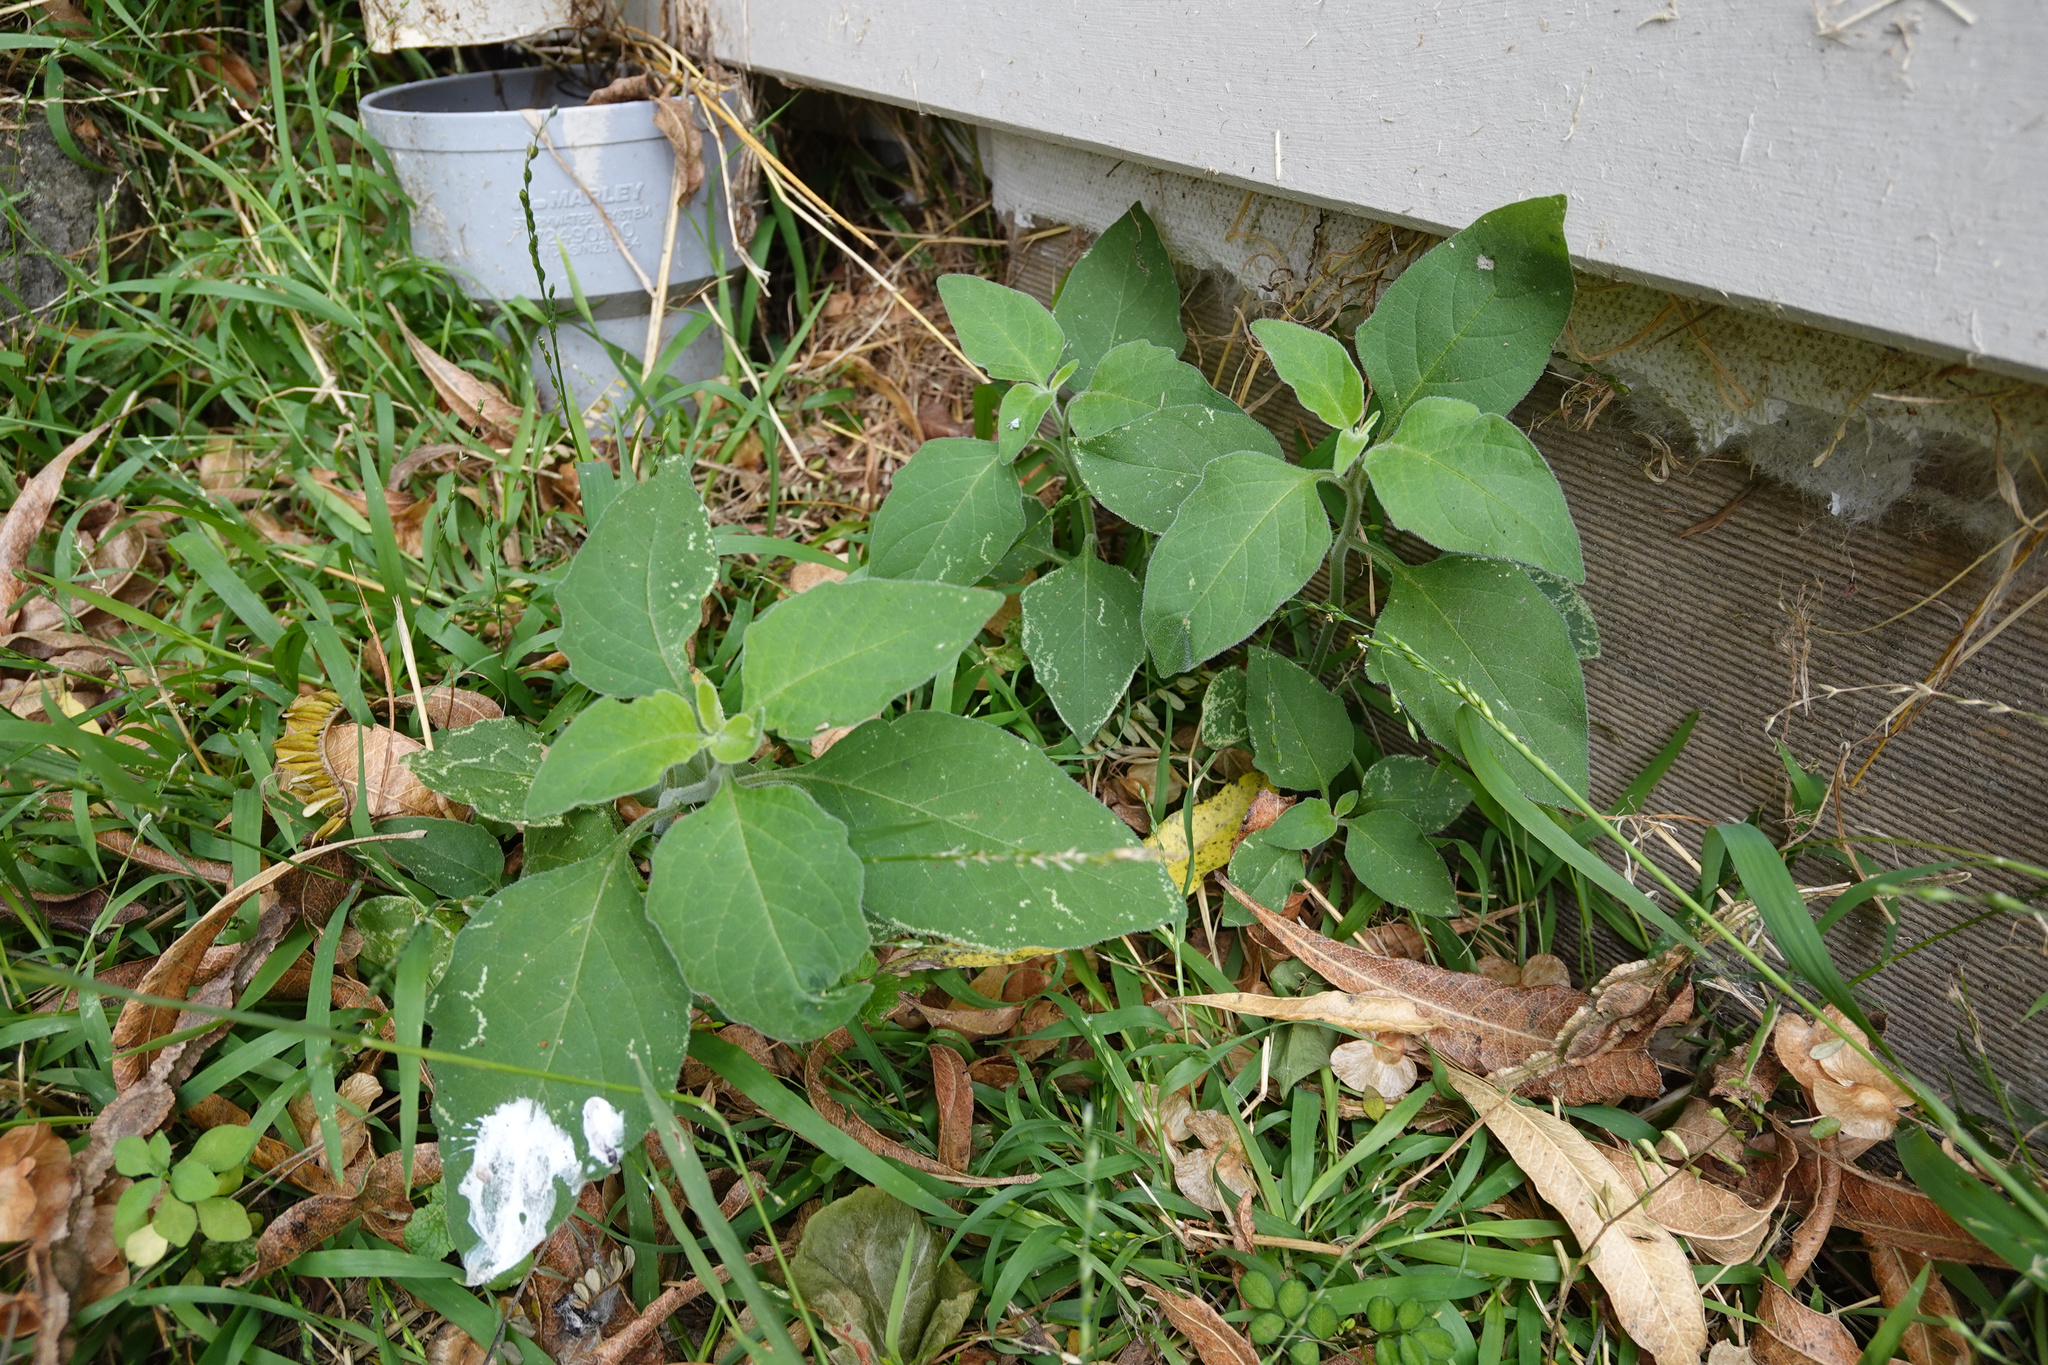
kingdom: Plantae
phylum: Tracheophyta
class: Magnoliopsida
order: Solanales
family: Solanaceae
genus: Solanum
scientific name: Solanum chenopodioides
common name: Tall nightshade
